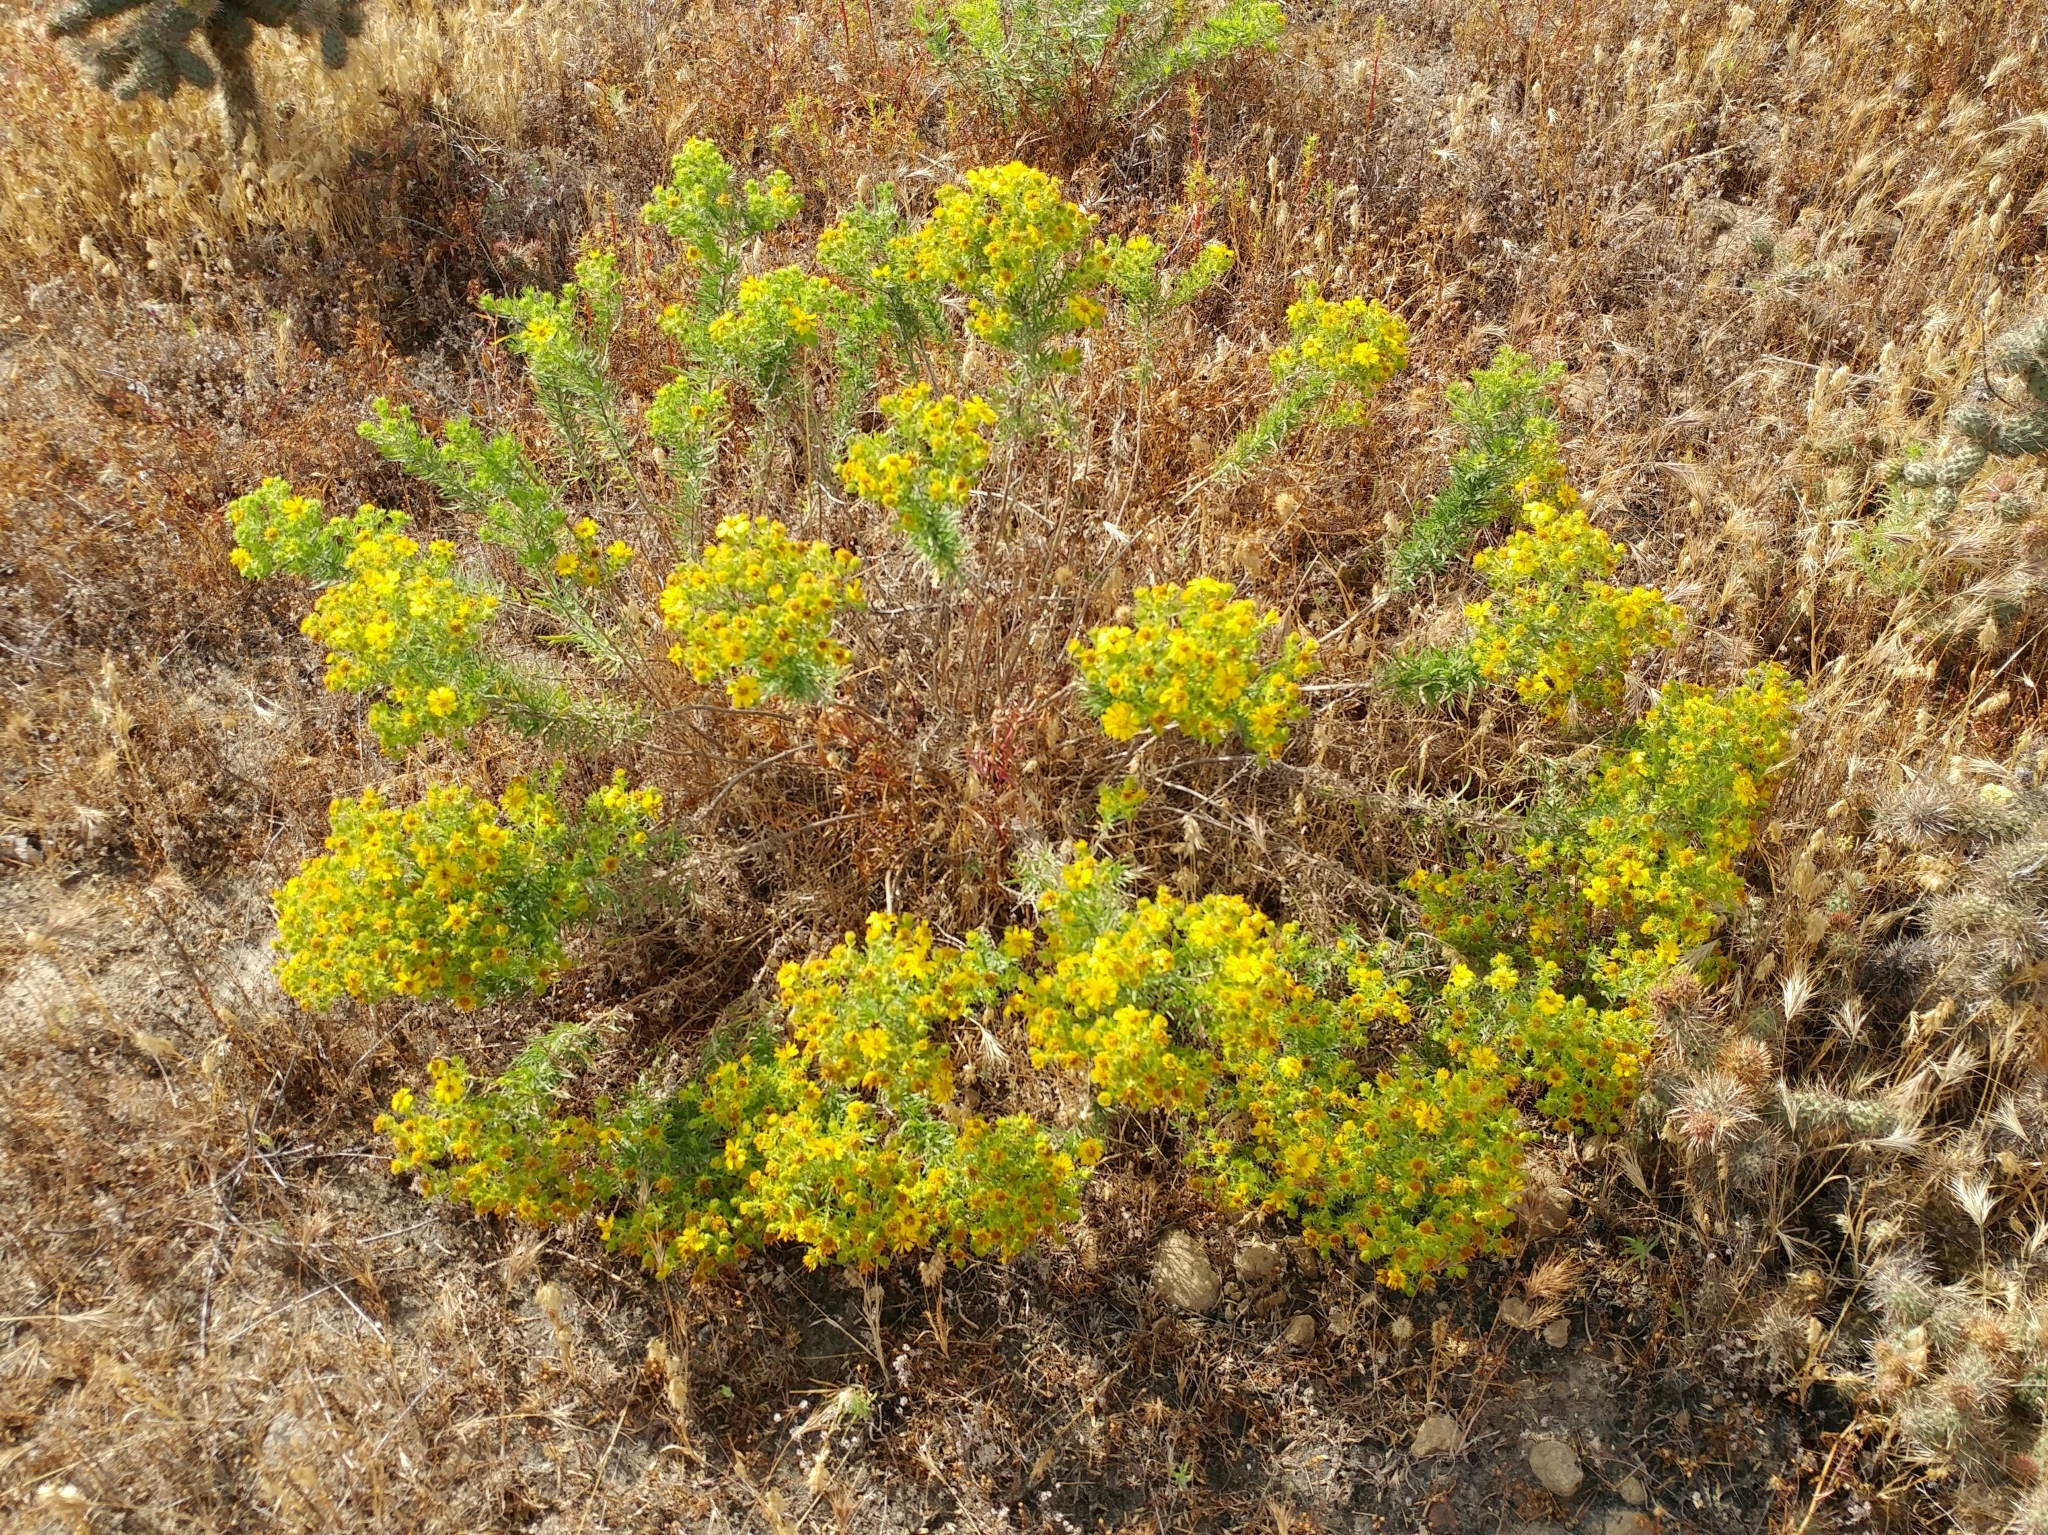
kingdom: Plantae
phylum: Tracheophyta
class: Magnoliopsida
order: Asterales
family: Asteraceae
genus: Deinandra
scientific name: Deinandra clementina
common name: Island tarplant
